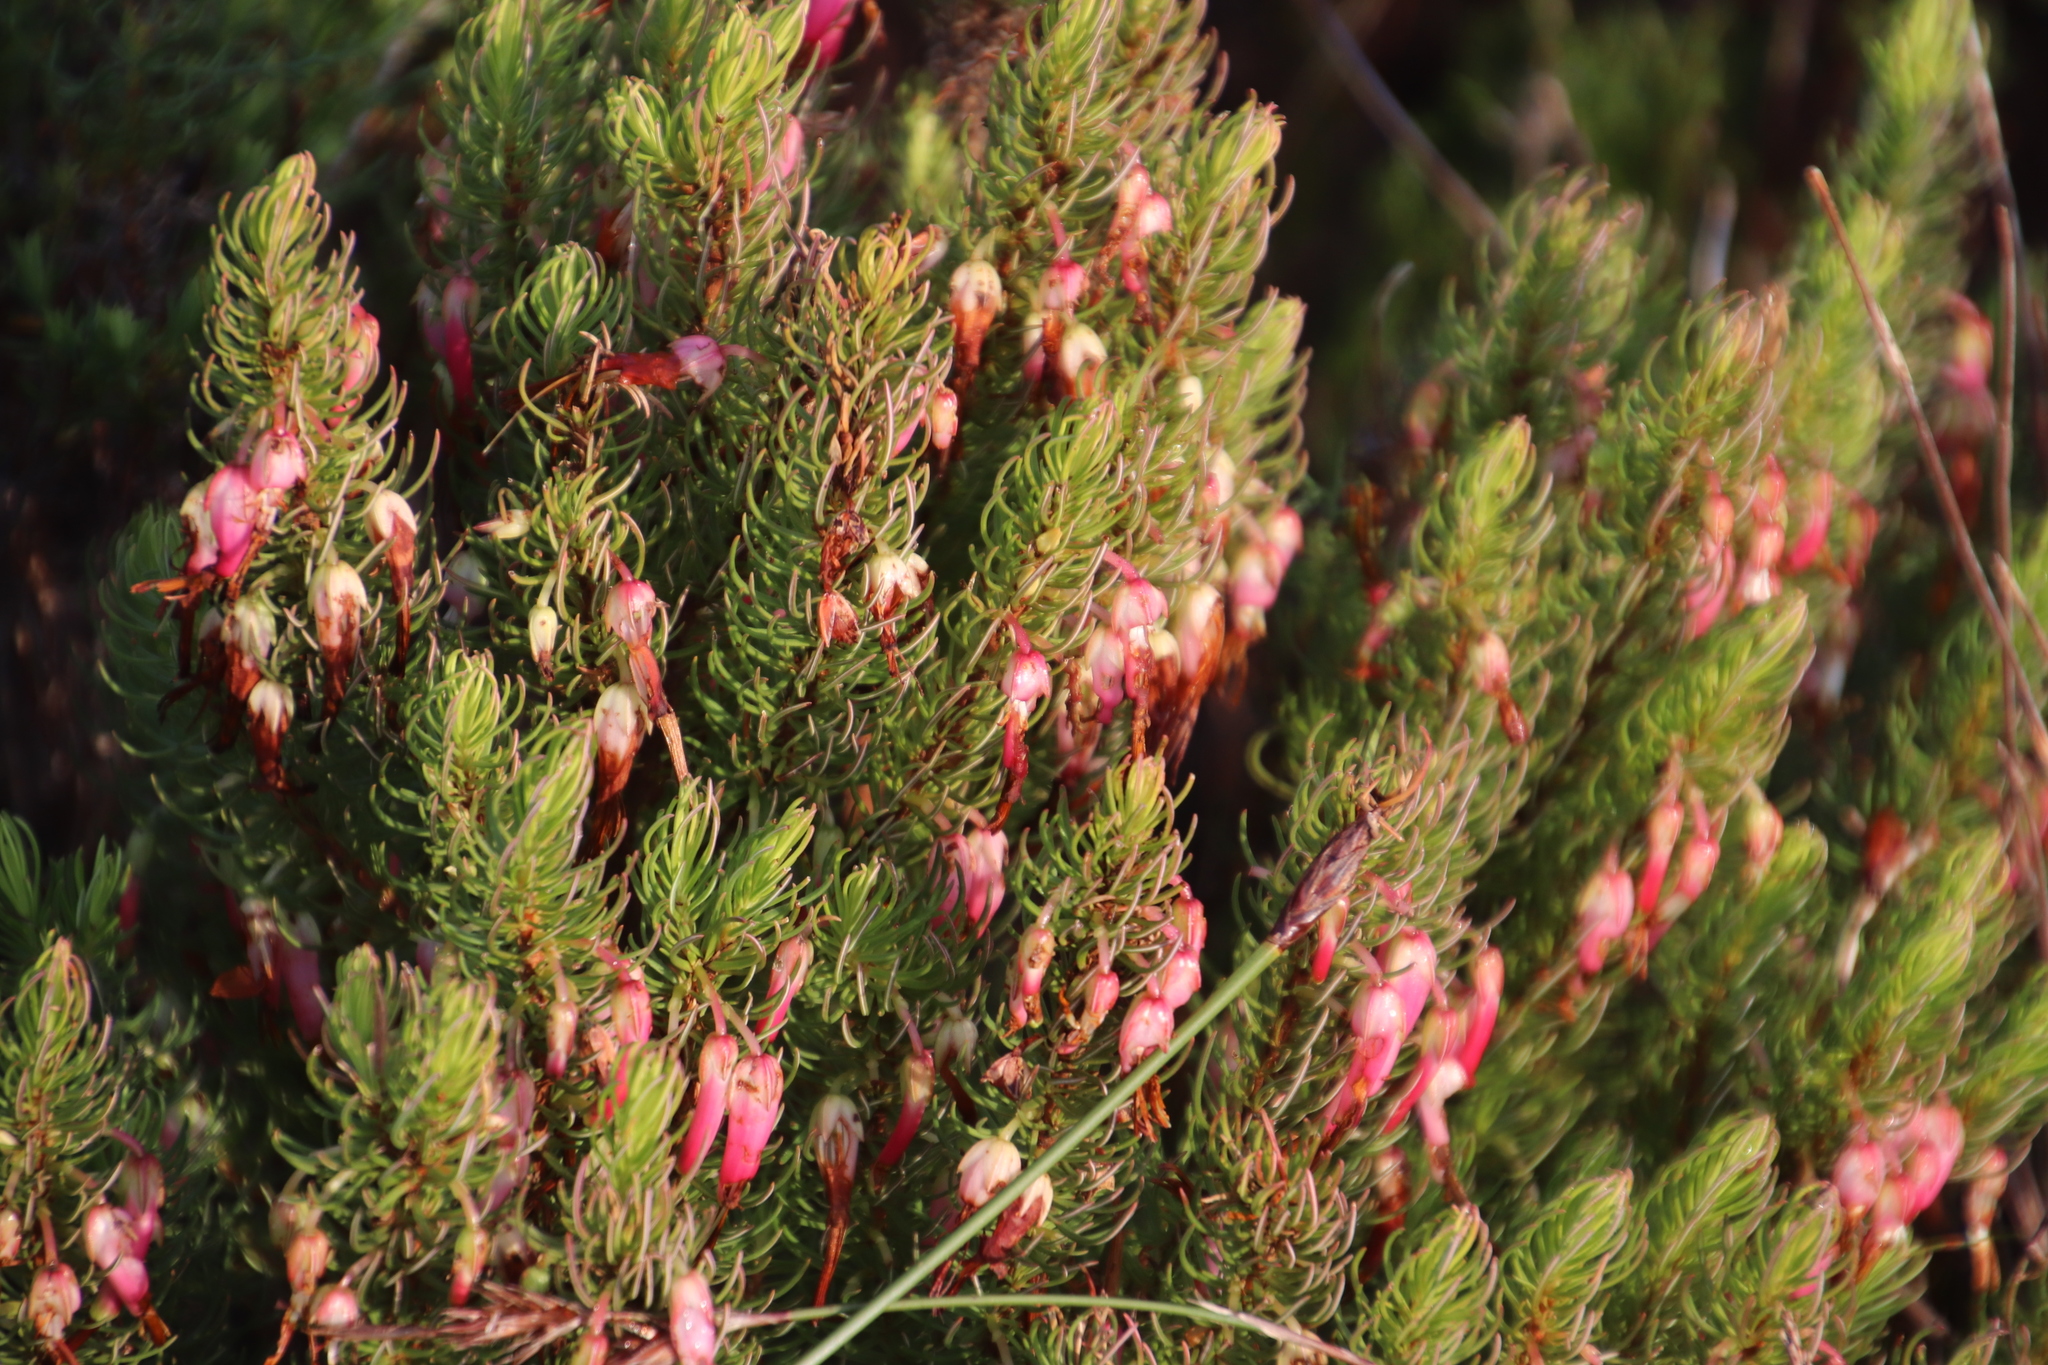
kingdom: Plantae
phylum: Tracheophyta
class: Magnoliopsida
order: Ericales
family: Ericaceae
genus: Erica
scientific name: Erica plukenetii
